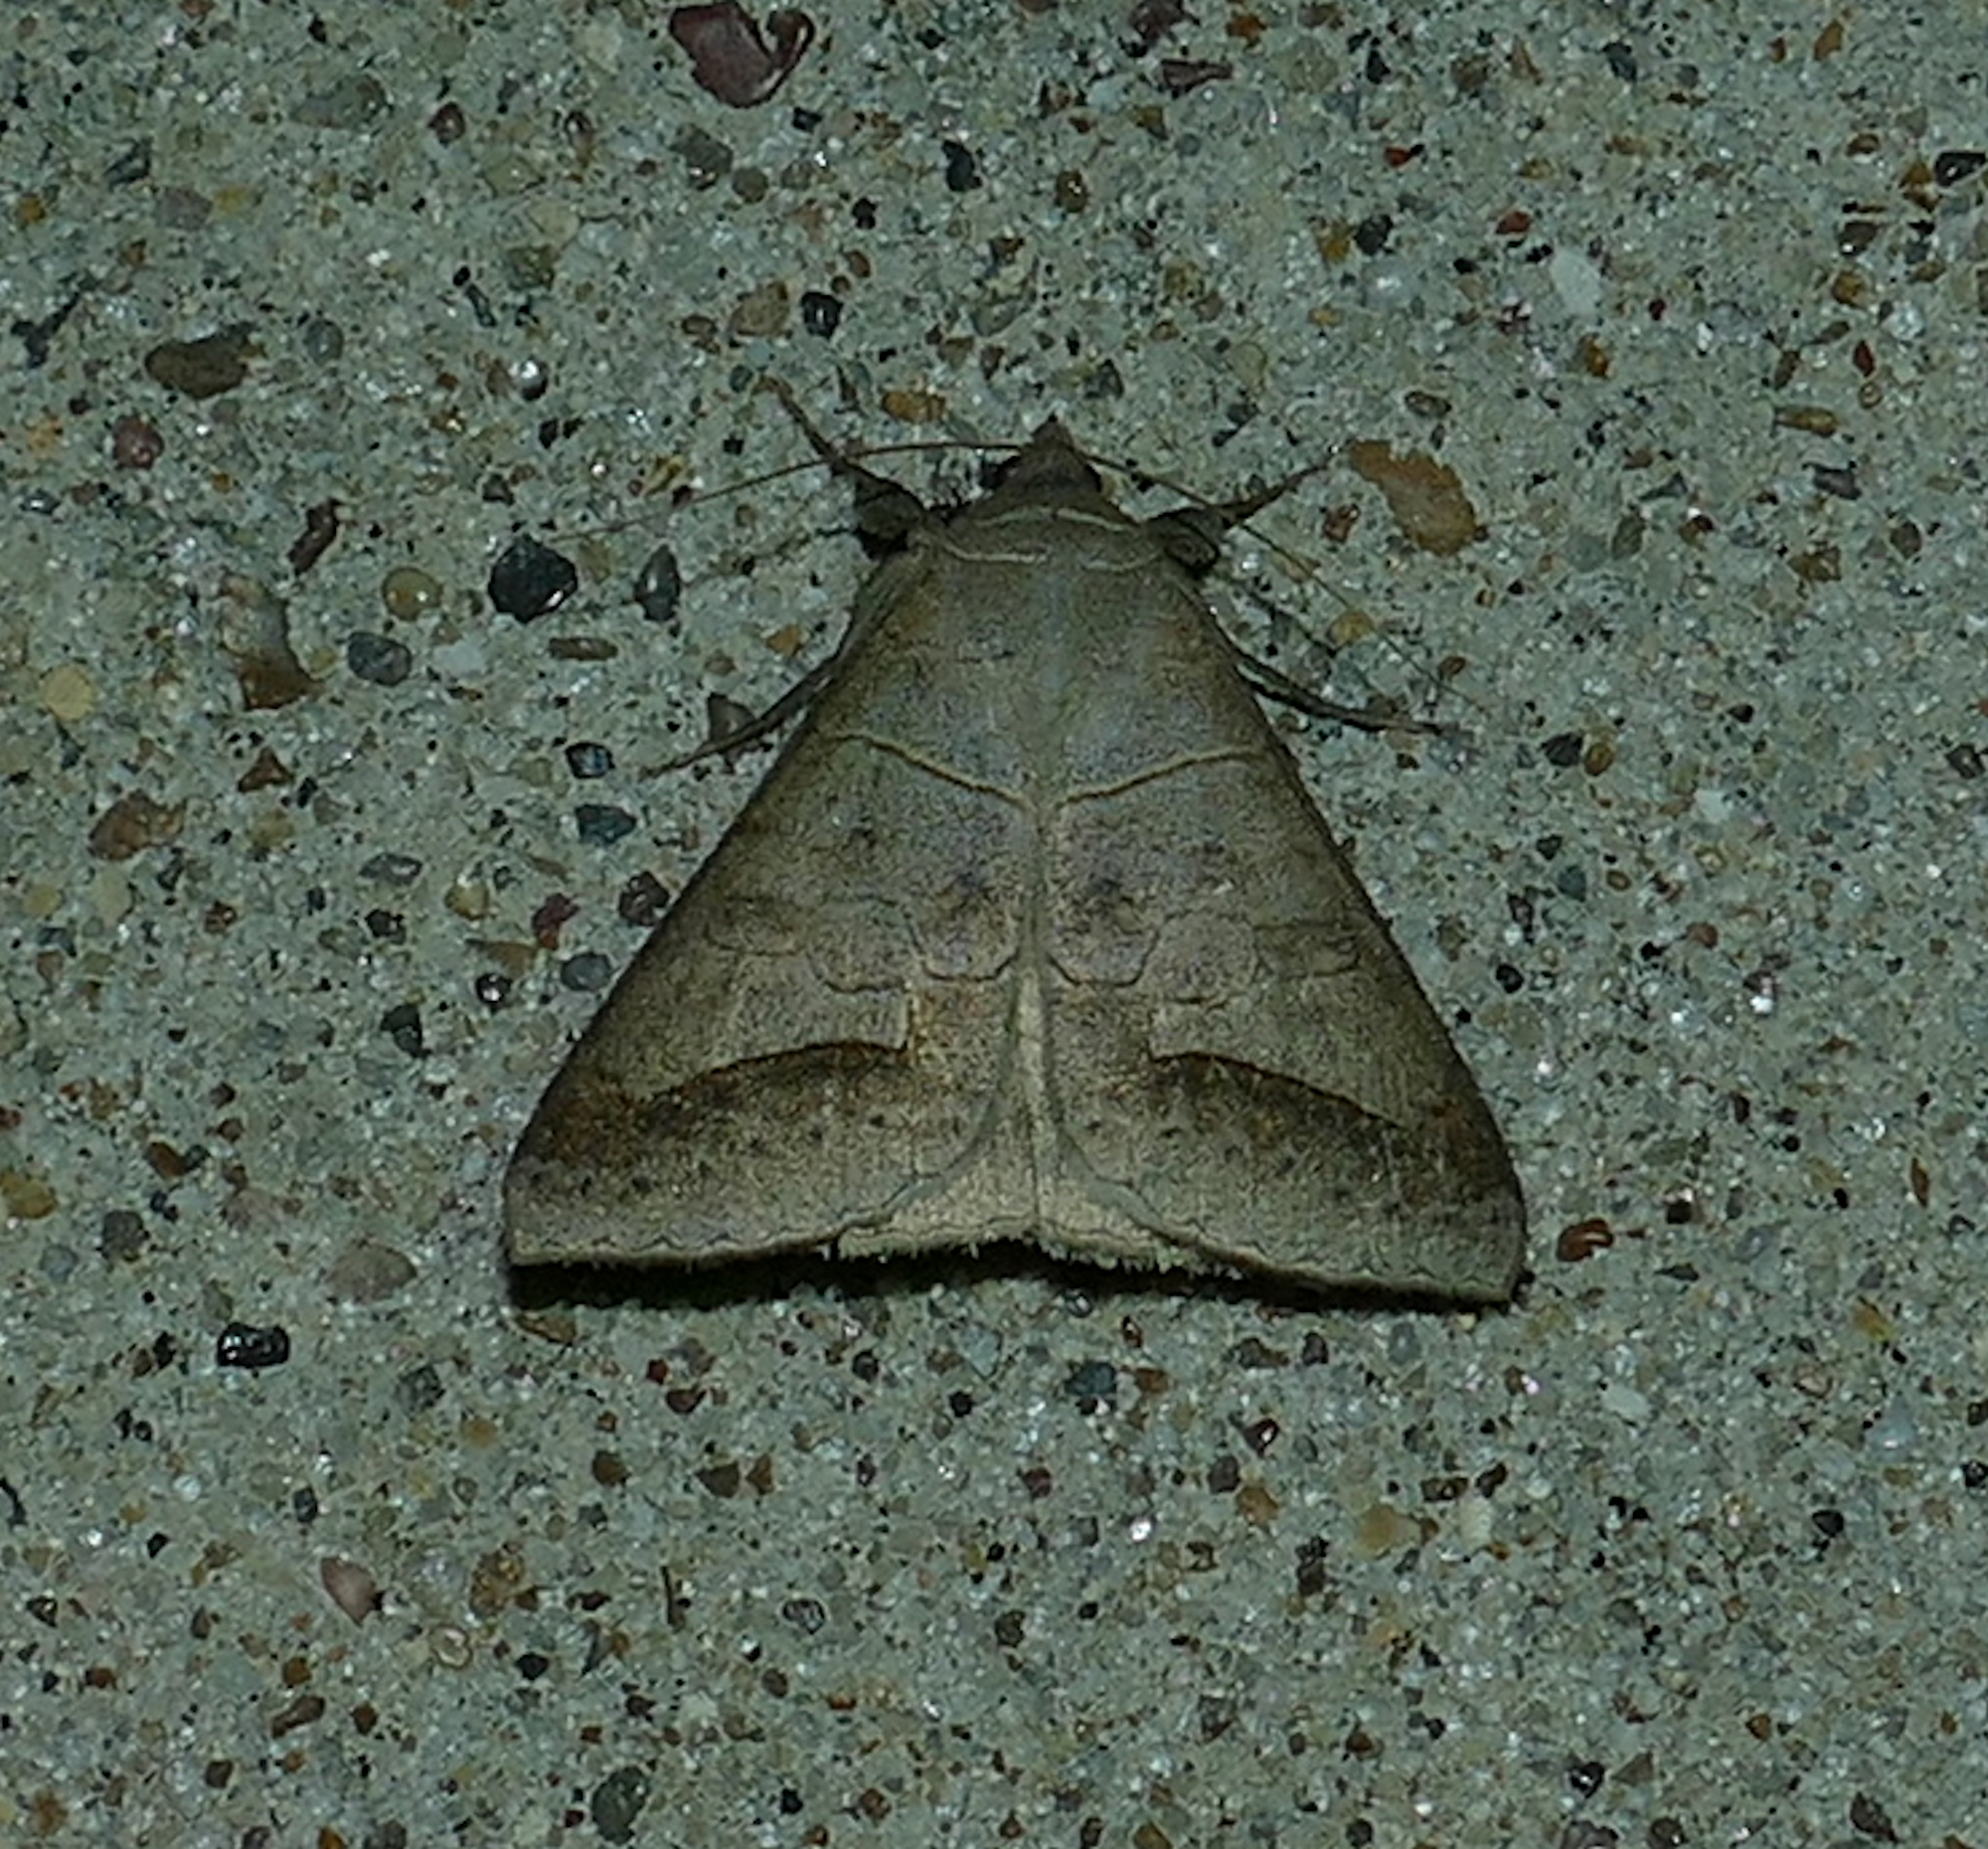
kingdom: Animalia
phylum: Arthropoda
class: Insecta
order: Lepidoptera
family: Erebidae
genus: Mocis
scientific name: Mocis marcida
